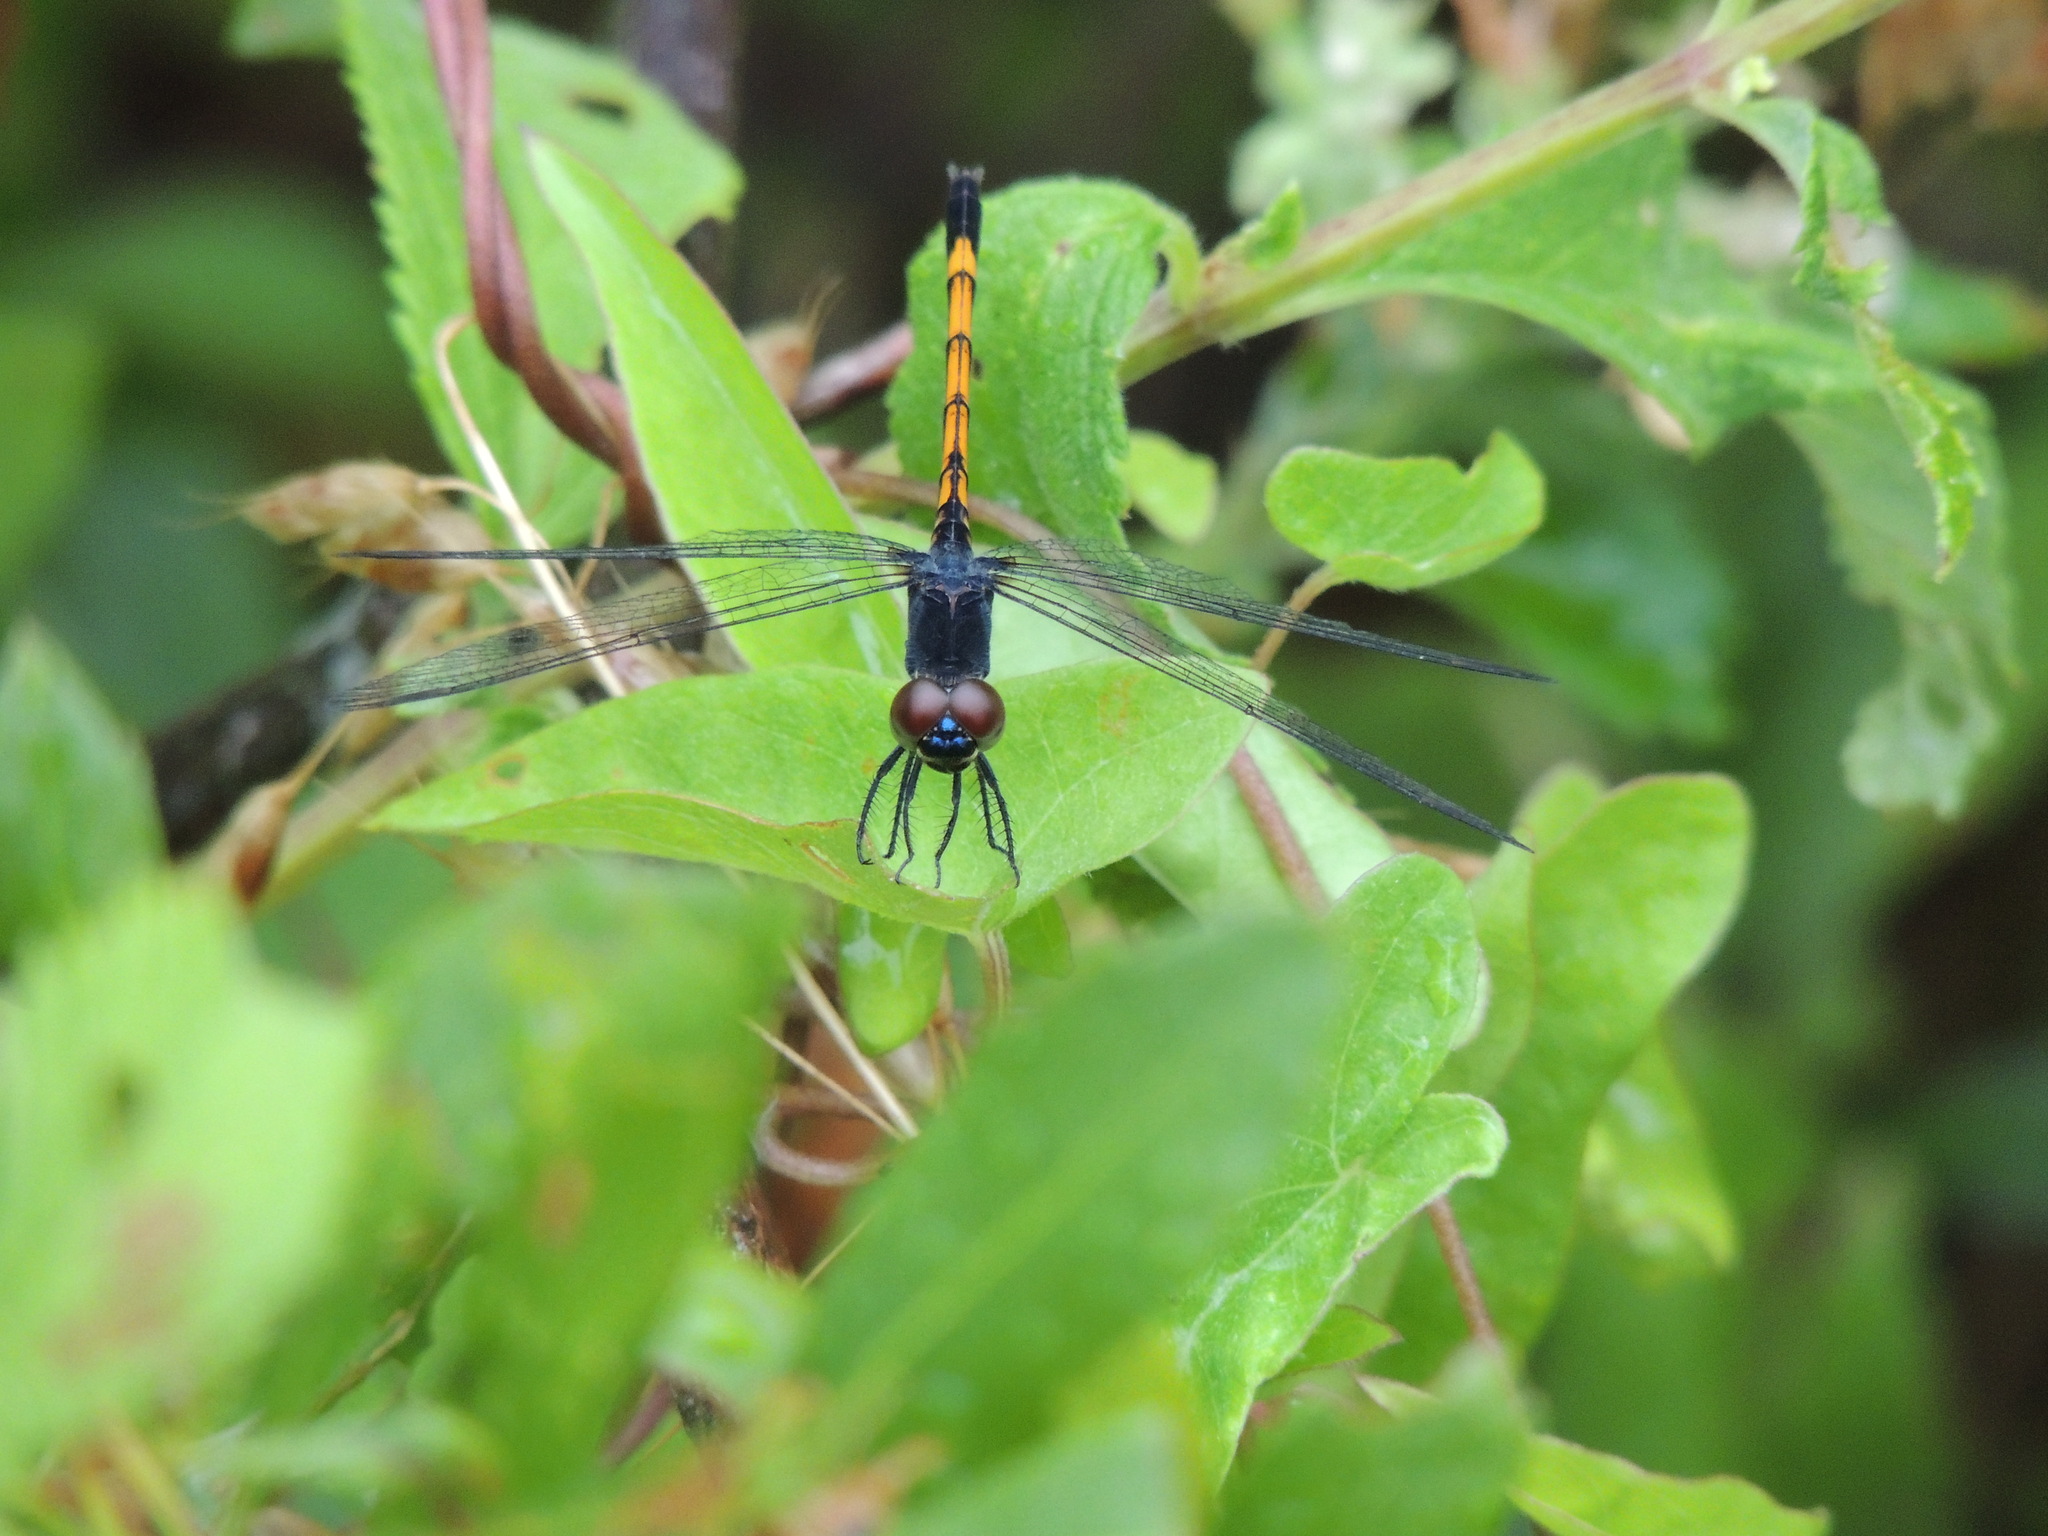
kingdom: Animalia
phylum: Arthropoda
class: Insecta
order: Odonata
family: Libellulidae
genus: Erythrodiplax
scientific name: Erythrodiplax berenice
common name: Seaside dragonlet
